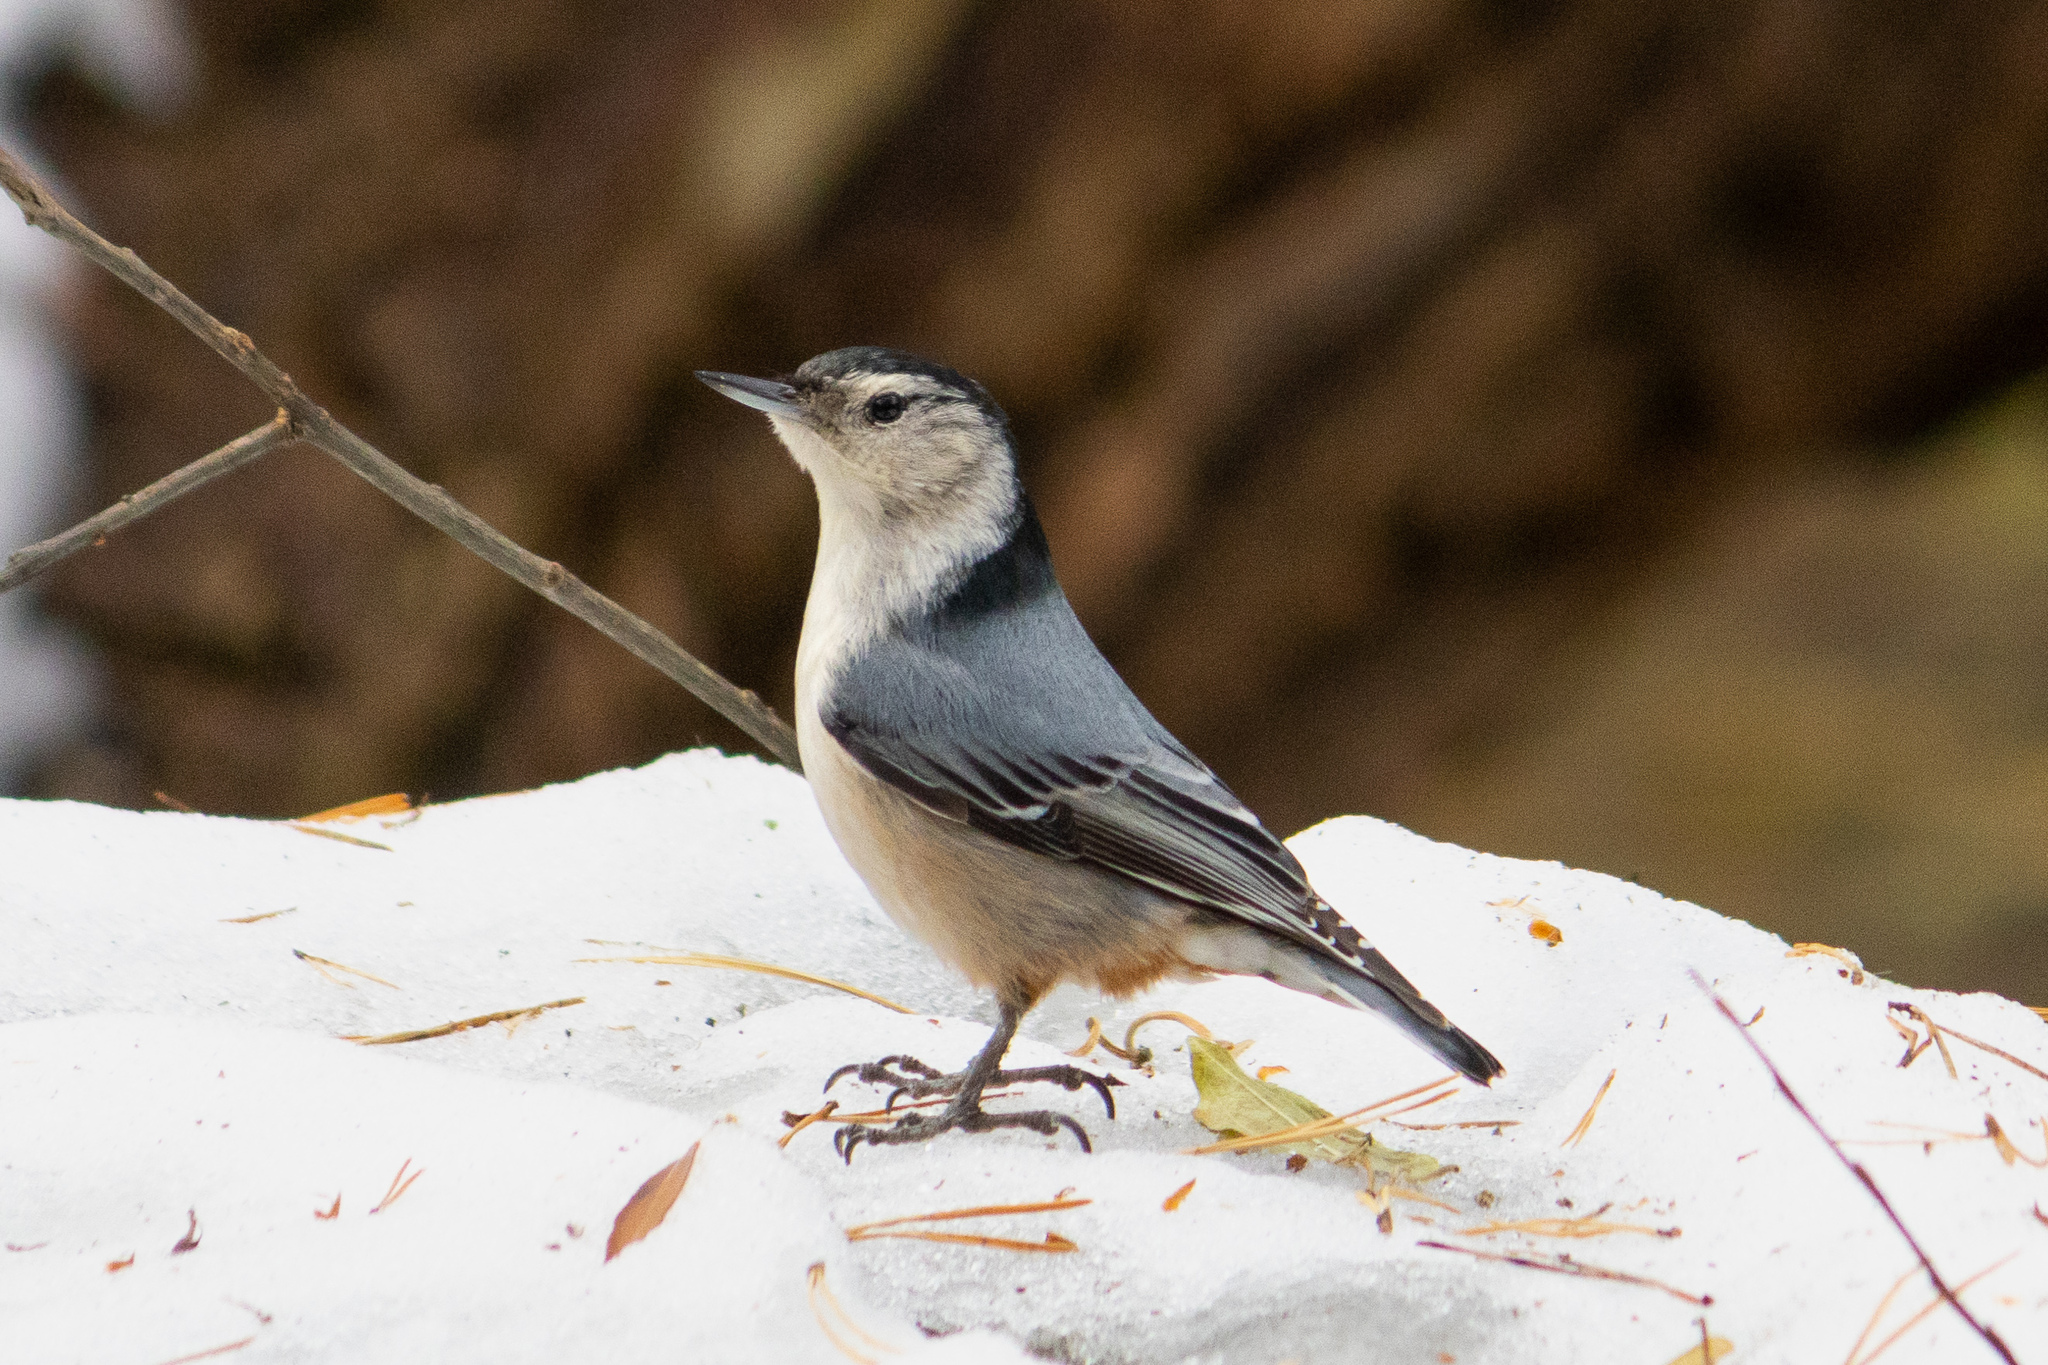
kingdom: Animalia
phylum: Chordata
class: Aves
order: Passeriformes
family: Sittidae
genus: Sitta
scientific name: Sitta carolinensis
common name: White-breasted nuthatch
